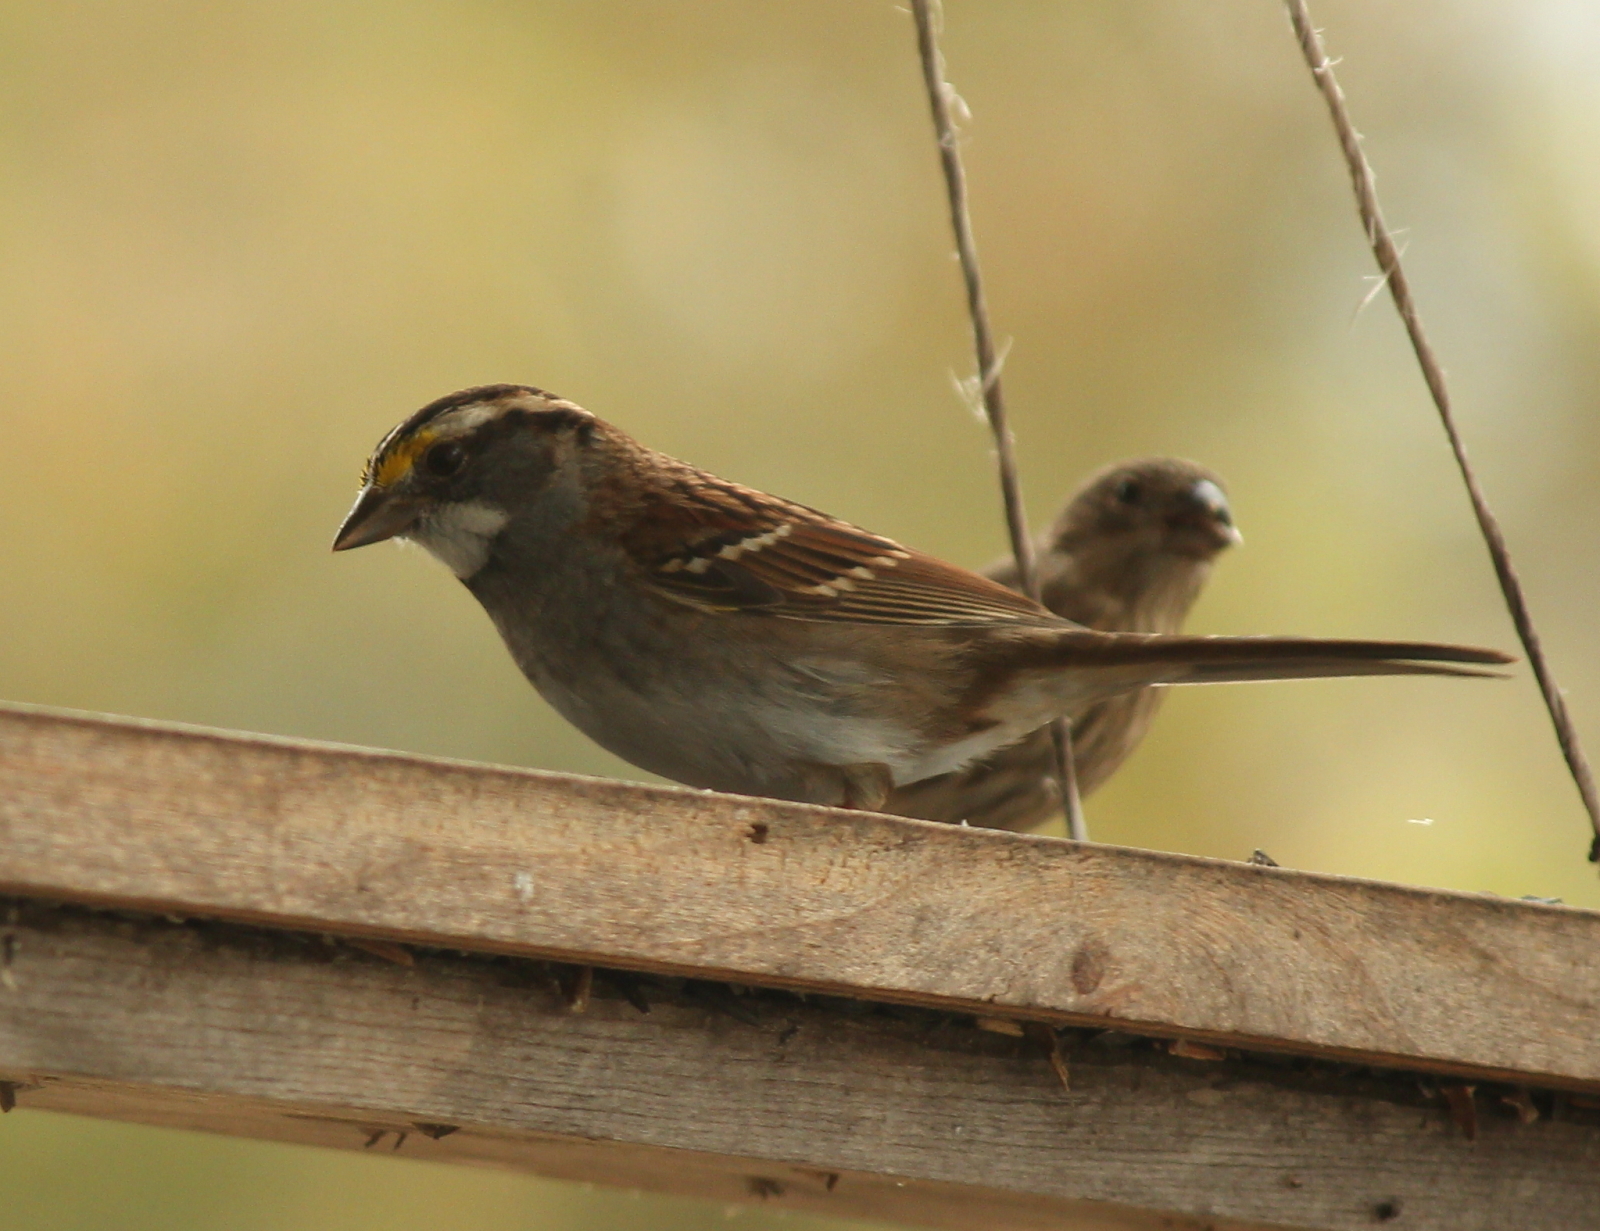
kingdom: Animalia
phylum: Chordata
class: Aves
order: Passeriformes
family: Passerellidae
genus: Zonotrichia
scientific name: Zonotrichia albicollis
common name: White-throated sparrow
